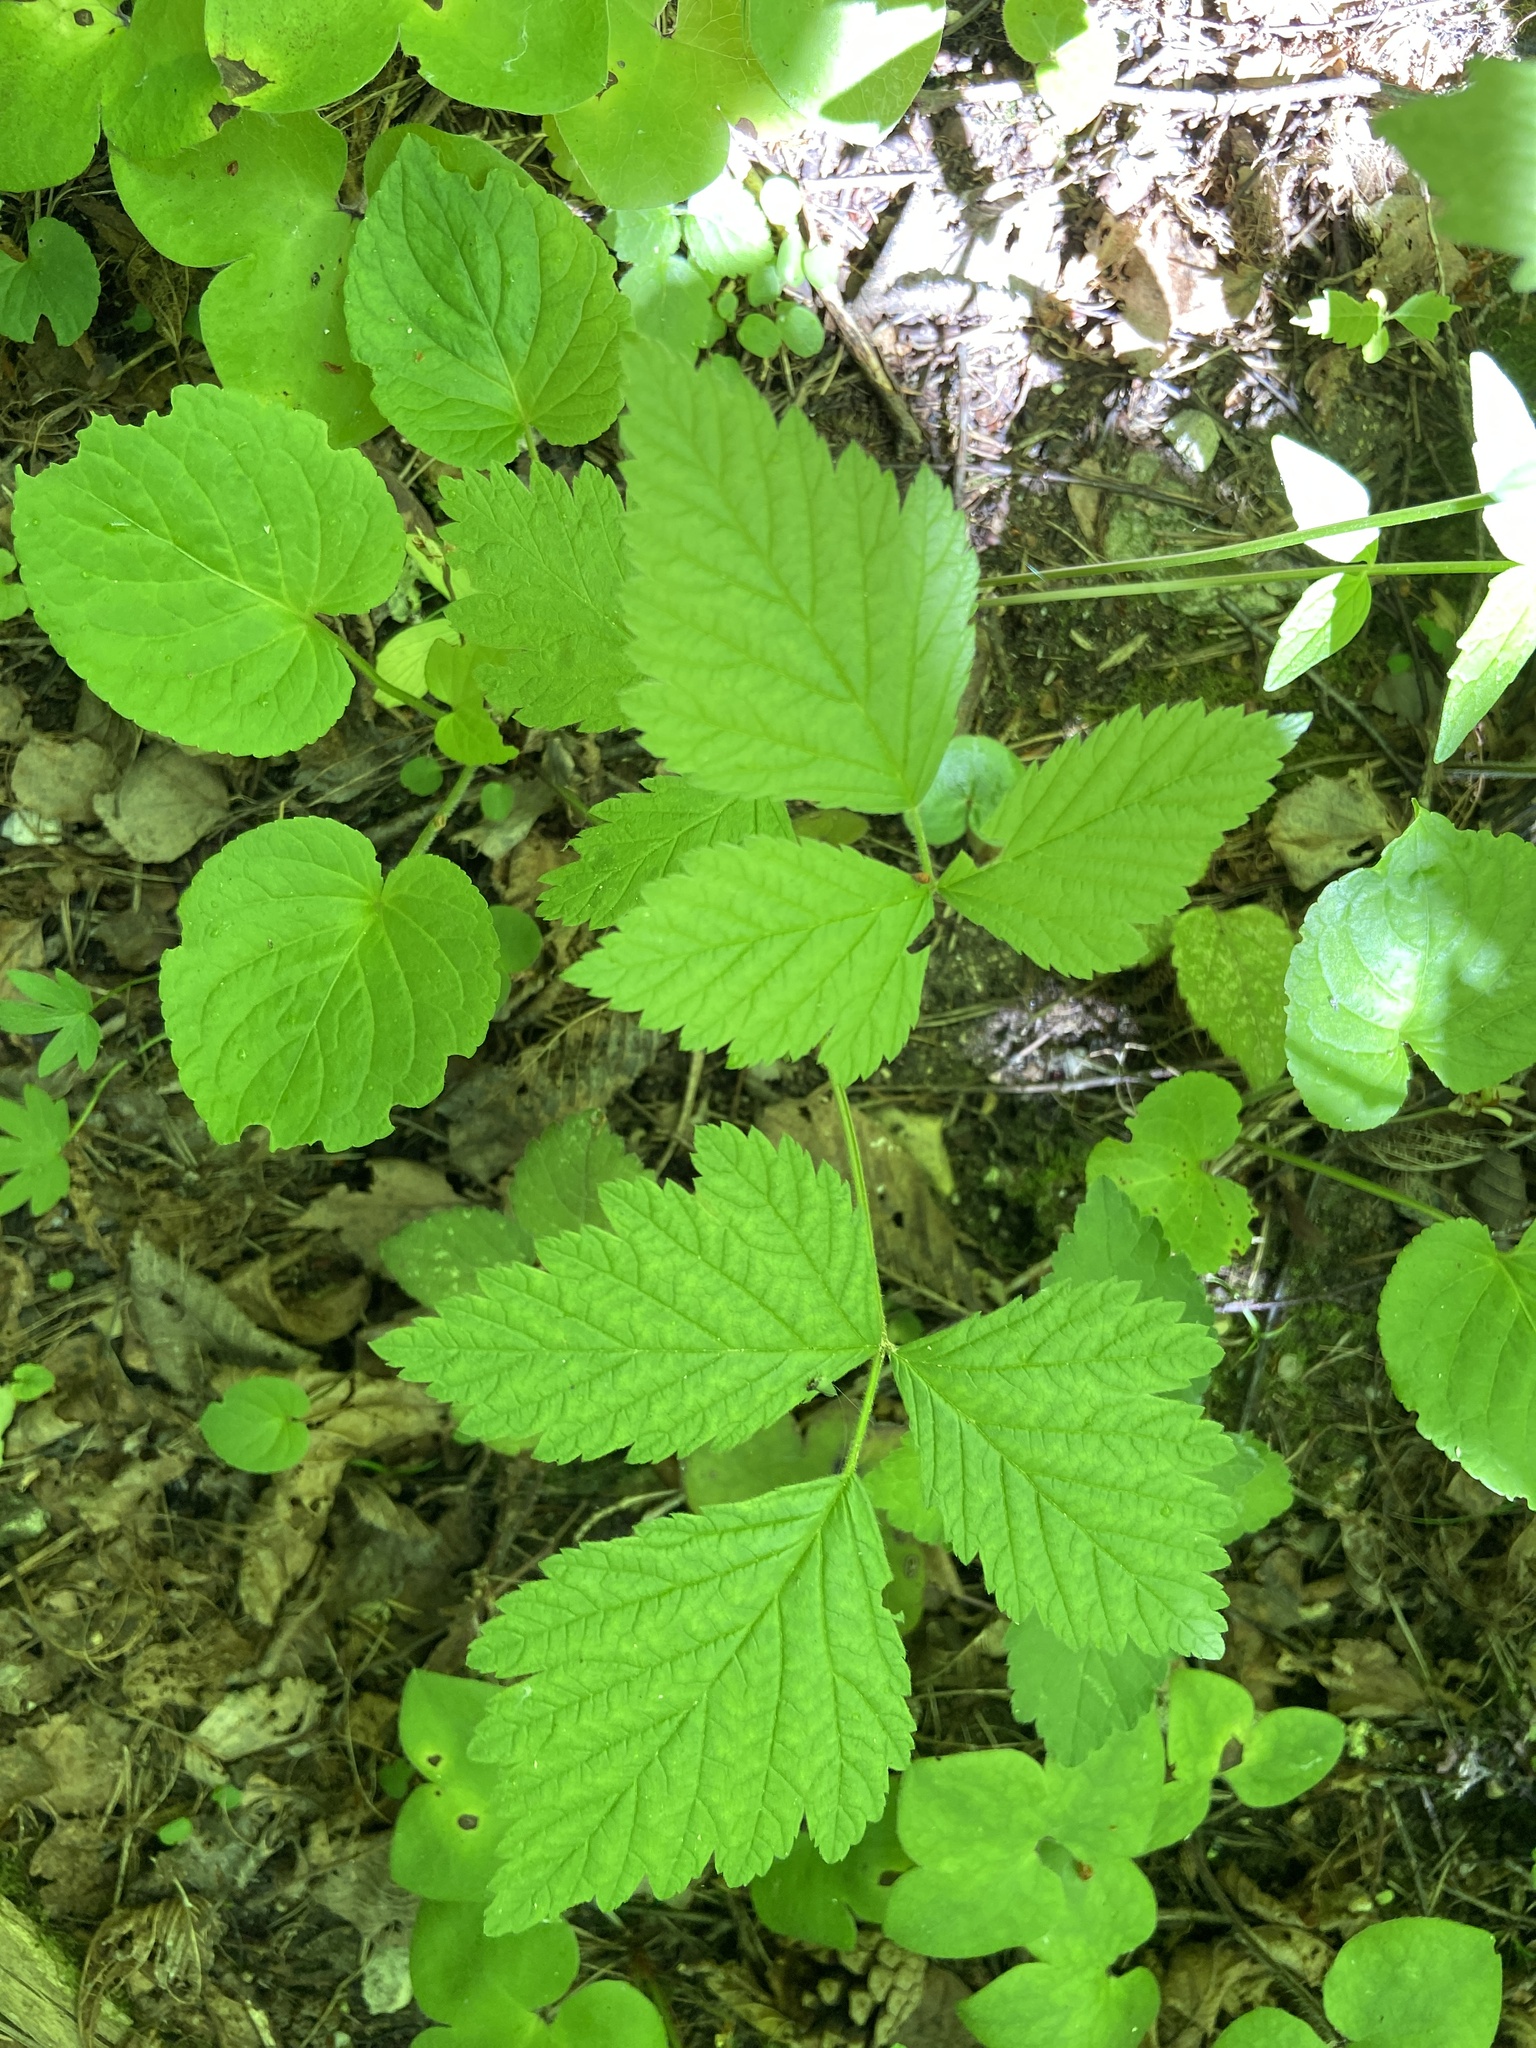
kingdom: Plantae
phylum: Tracheophyta
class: Magnoliopsida
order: Rosales
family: Rosaceae
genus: Rubus
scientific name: Rubus saxatilis
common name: Stone bramble
